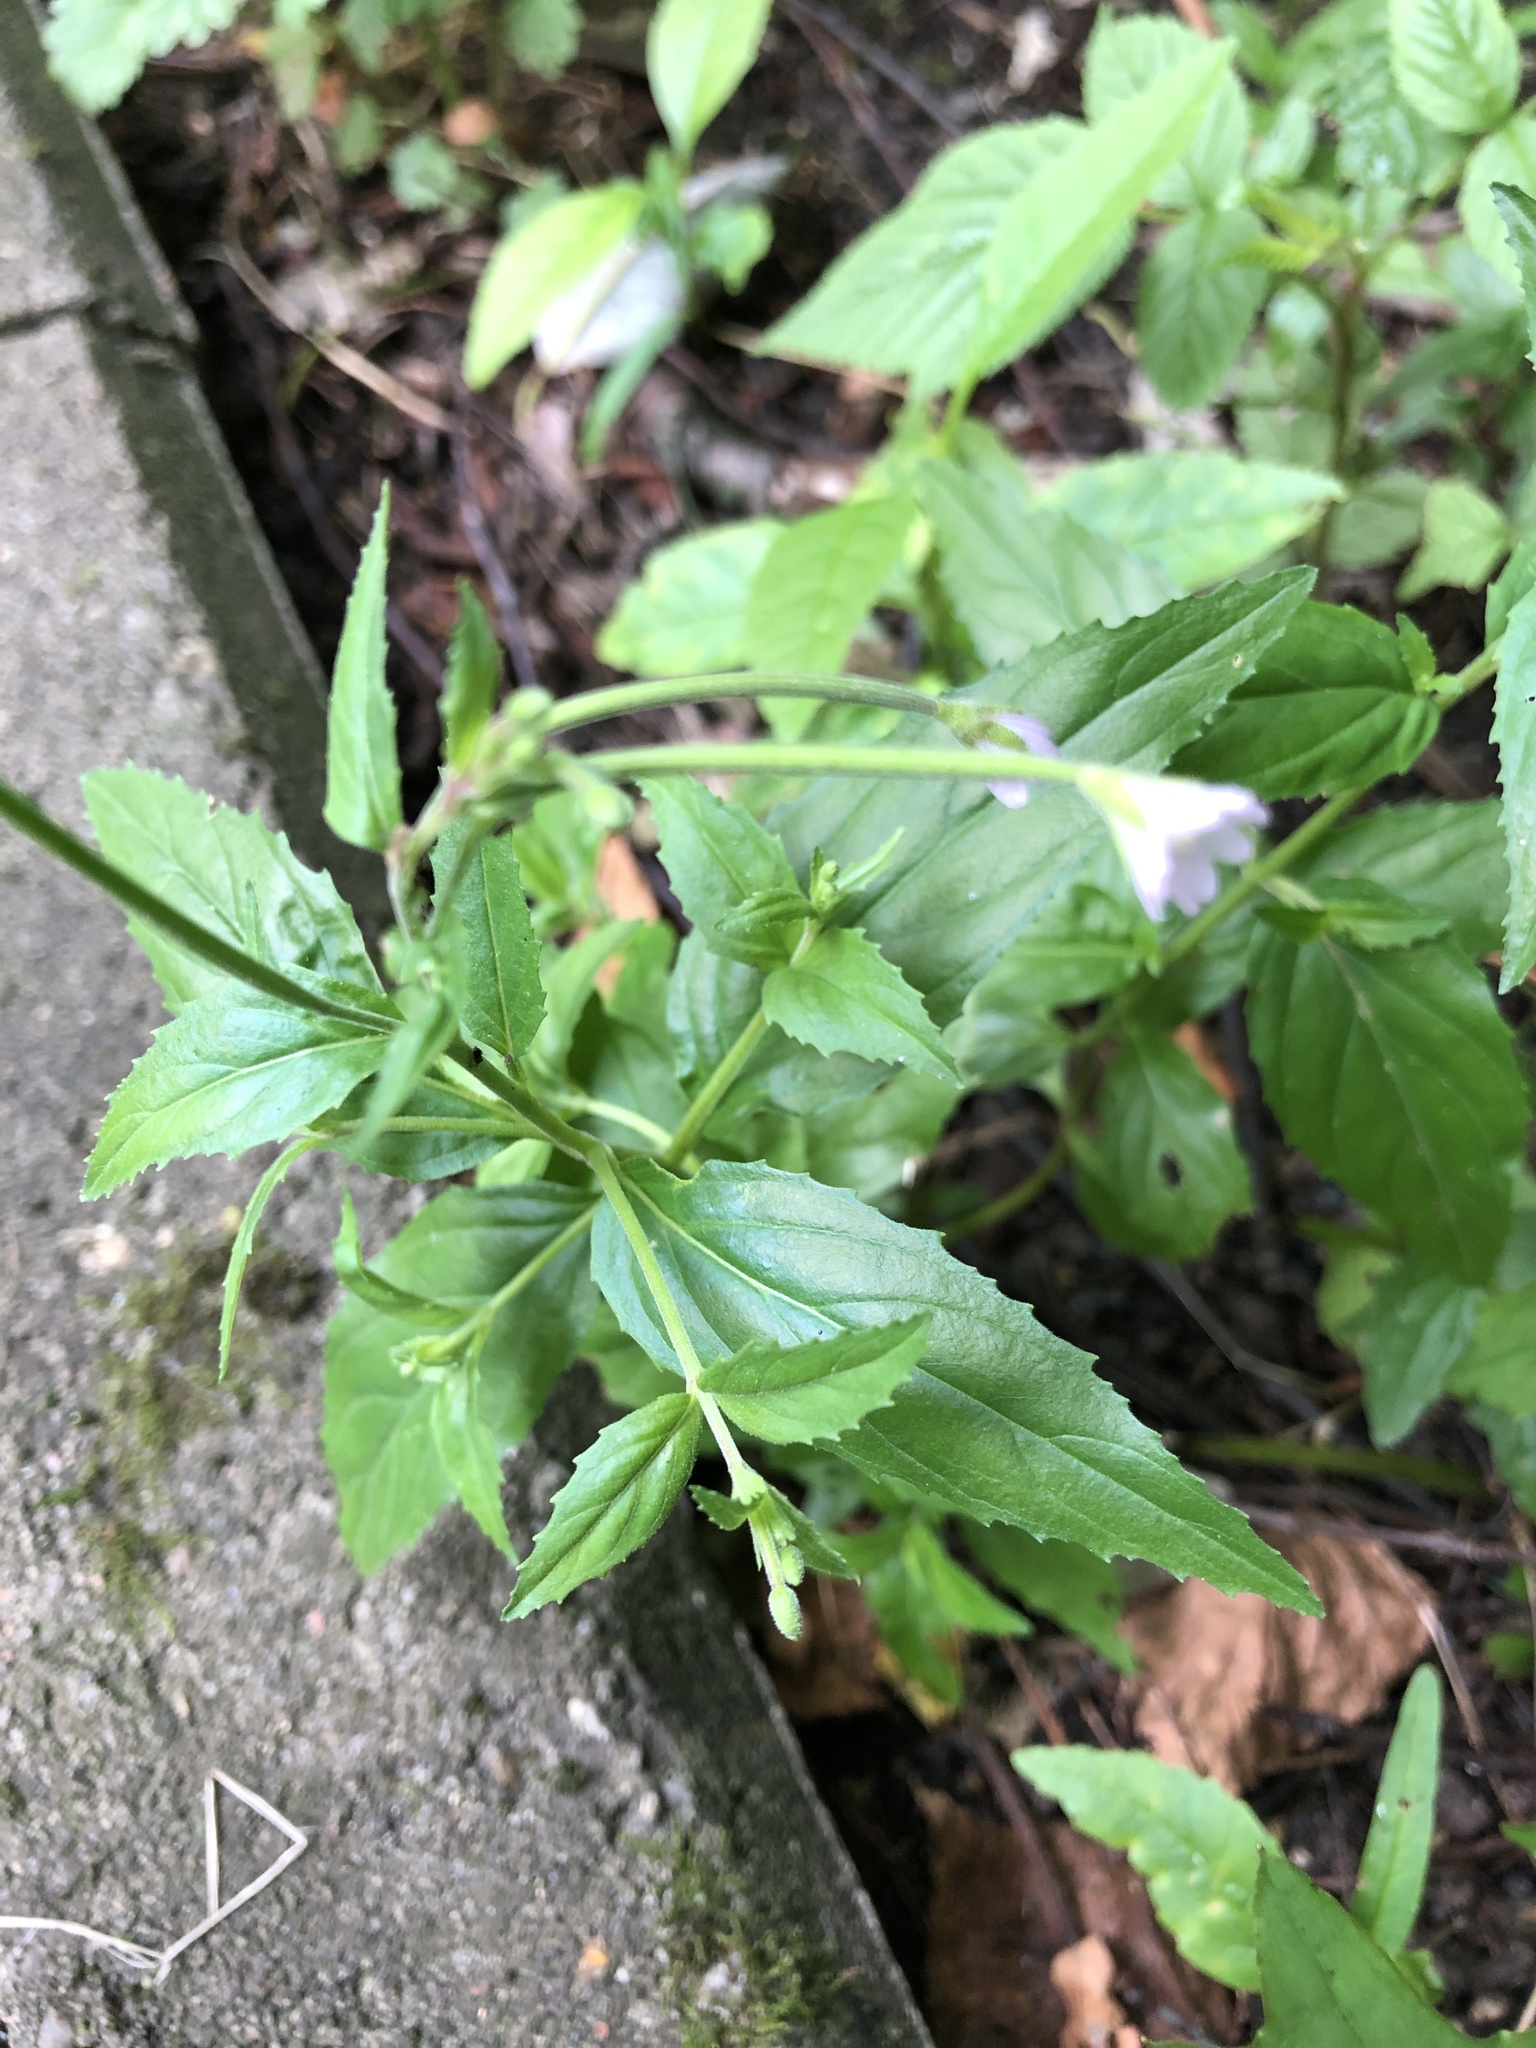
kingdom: Plantae
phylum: Tracheophyta
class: Magnoliopsida
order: Myrtales
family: Onagraceae
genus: Epilobium
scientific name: Epilobium montanum
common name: Broad-leaved willowherb
